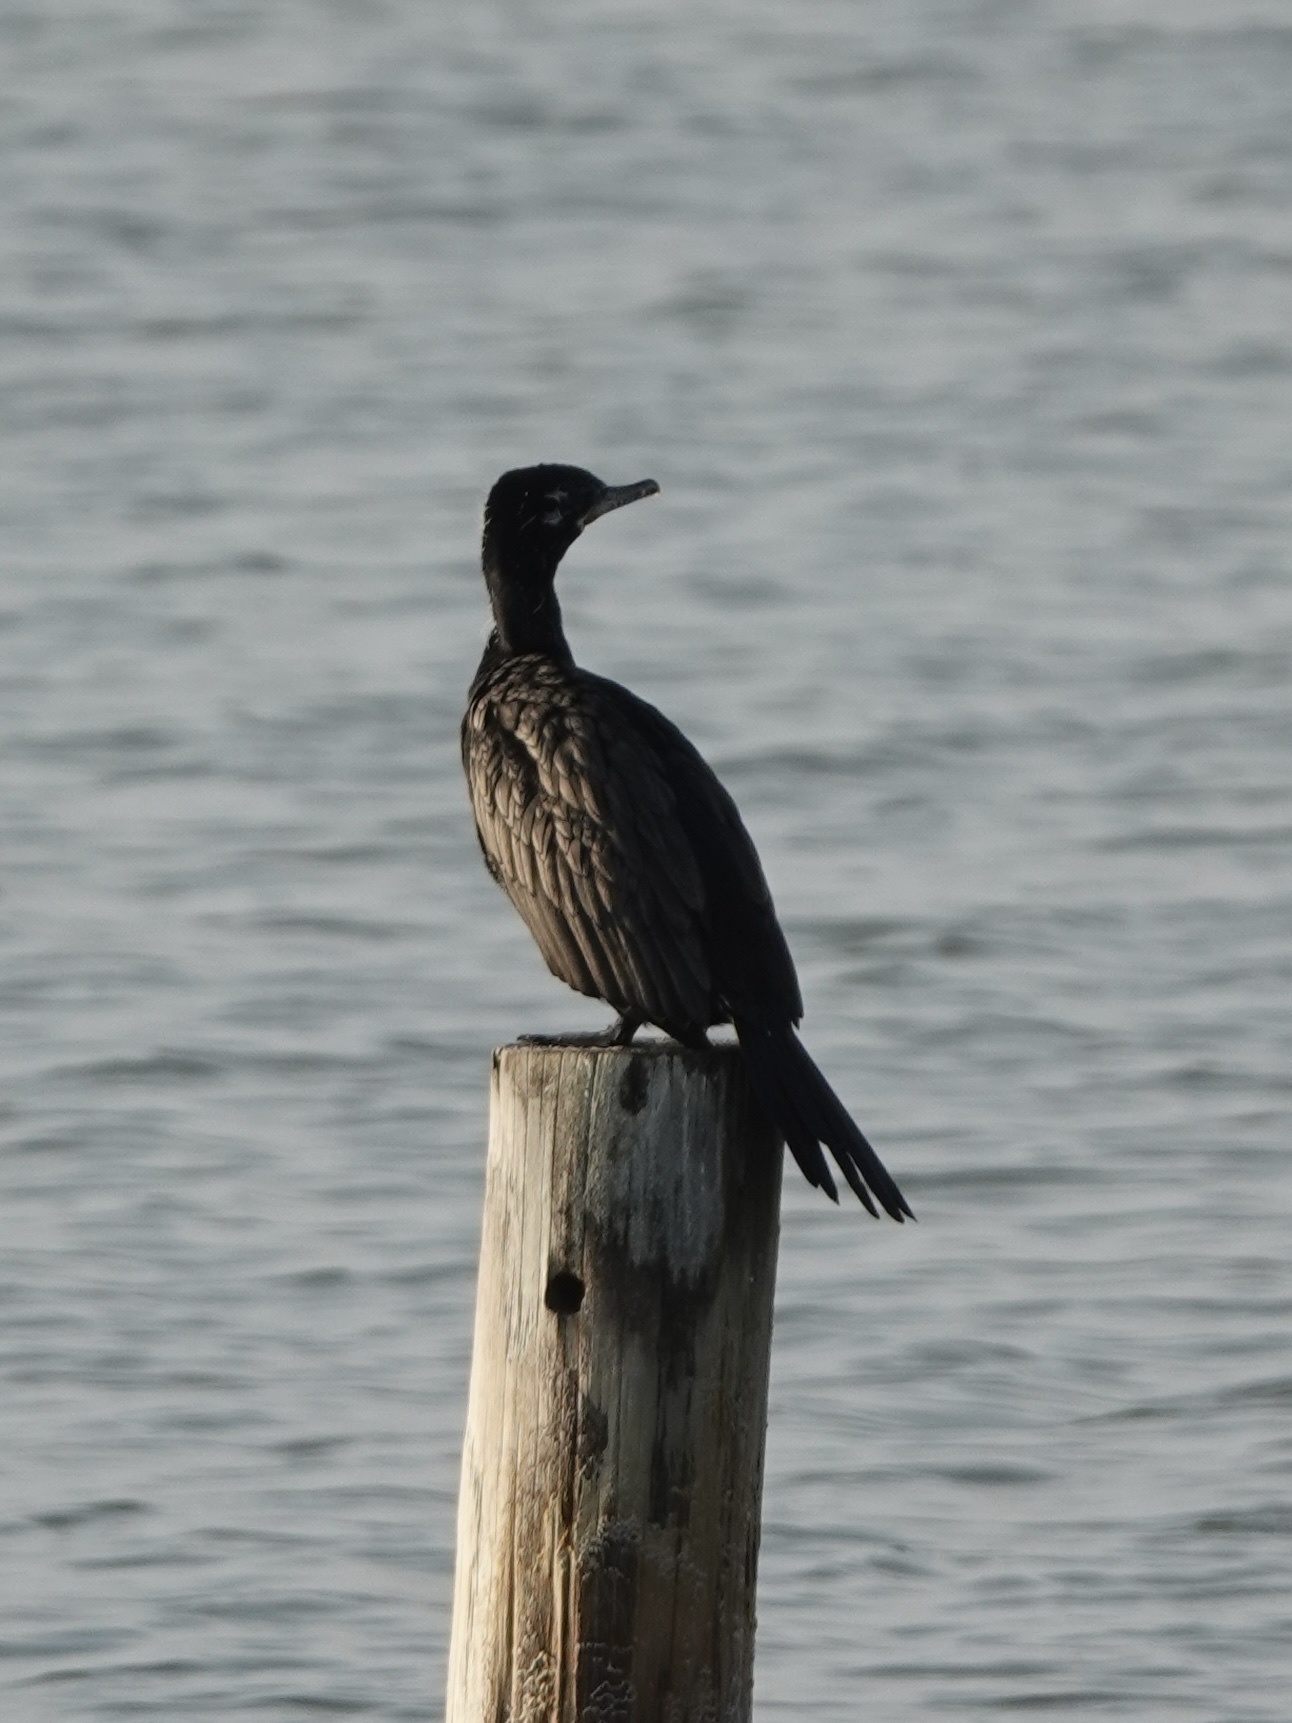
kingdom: Animalia
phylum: Chordata
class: Aves
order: Suliformes
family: Phalacrocoracidae
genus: Phalacrocorax
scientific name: Phalacrocorax brasilianus
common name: Neotropic cormorant
